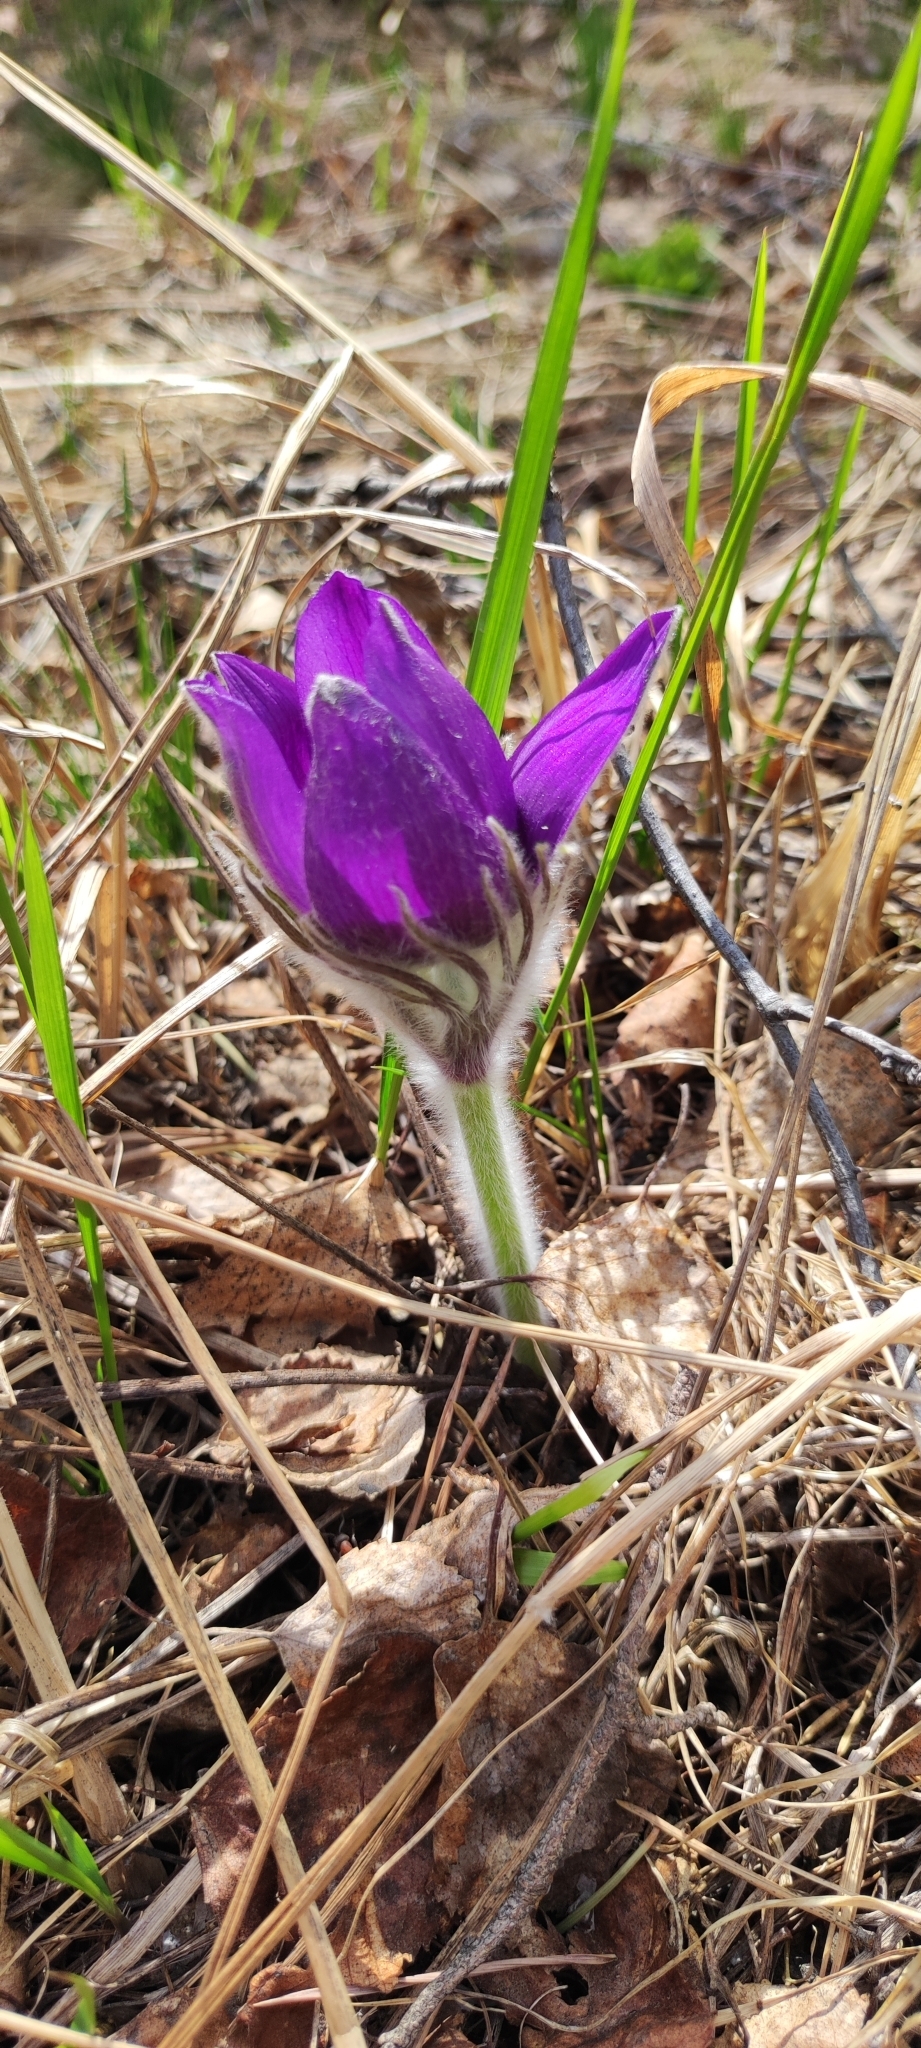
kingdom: Plantae
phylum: Tracheophyta
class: Magnoliopsida
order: Ranunculales
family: Ranunculaceae
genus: Pulsatilla
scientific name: Pulsatilla patens
